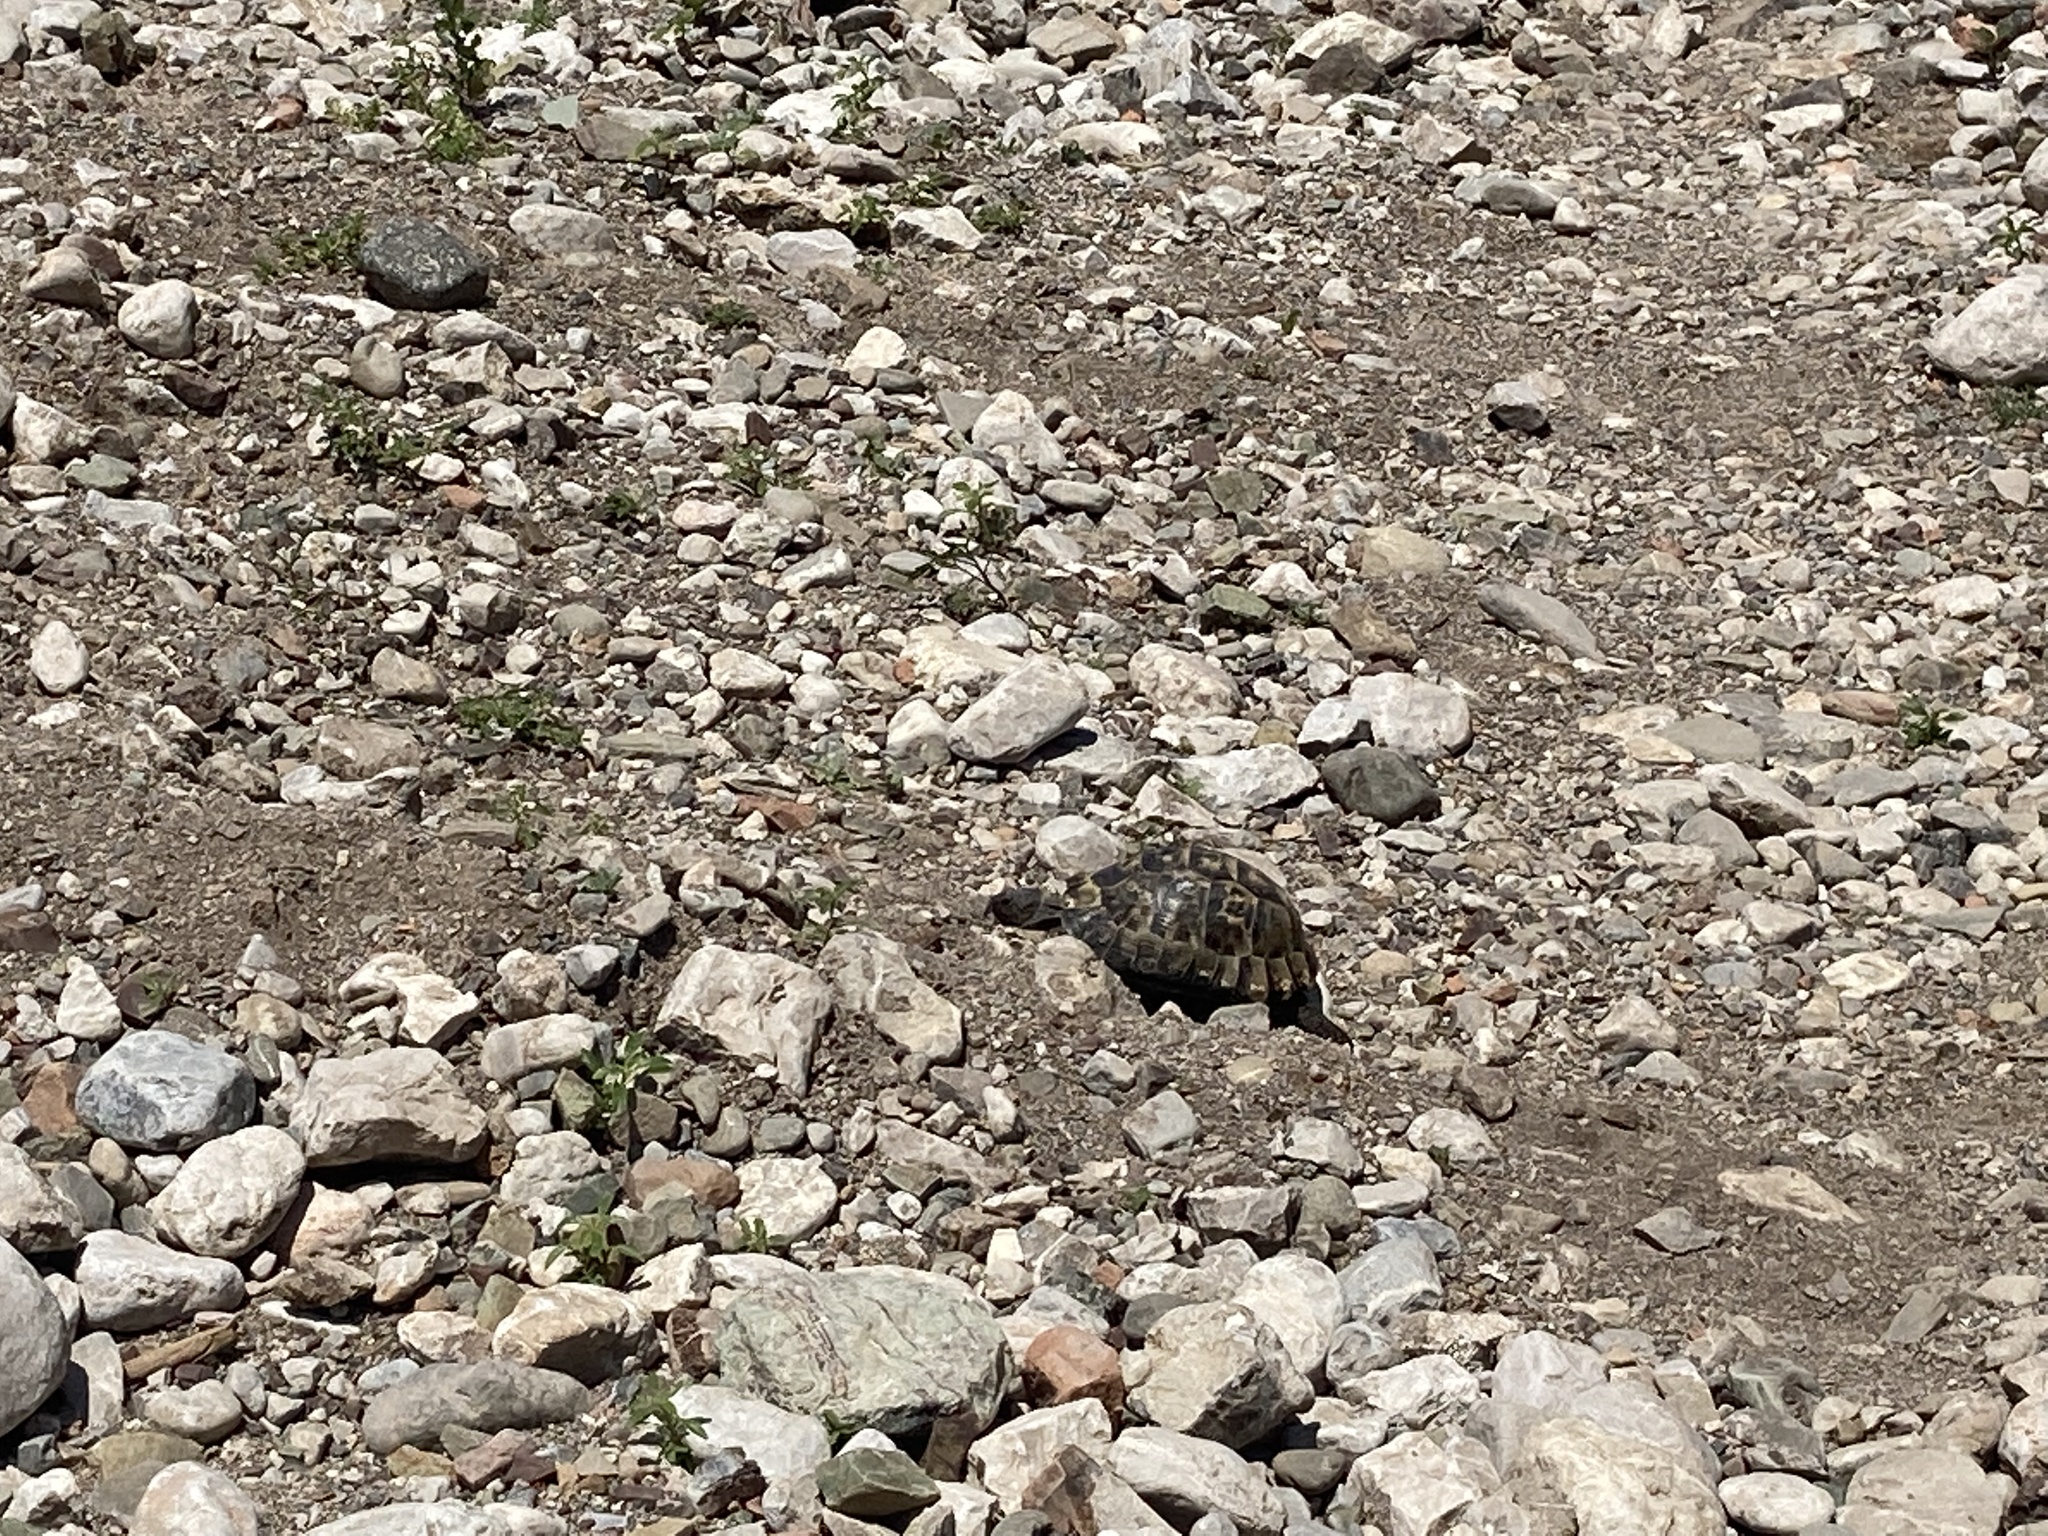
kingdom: Animalia
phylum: Chordata
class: Testudines
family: Testudinidae
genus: Testudo
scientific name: Testudo graeca
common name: Common tortoise
